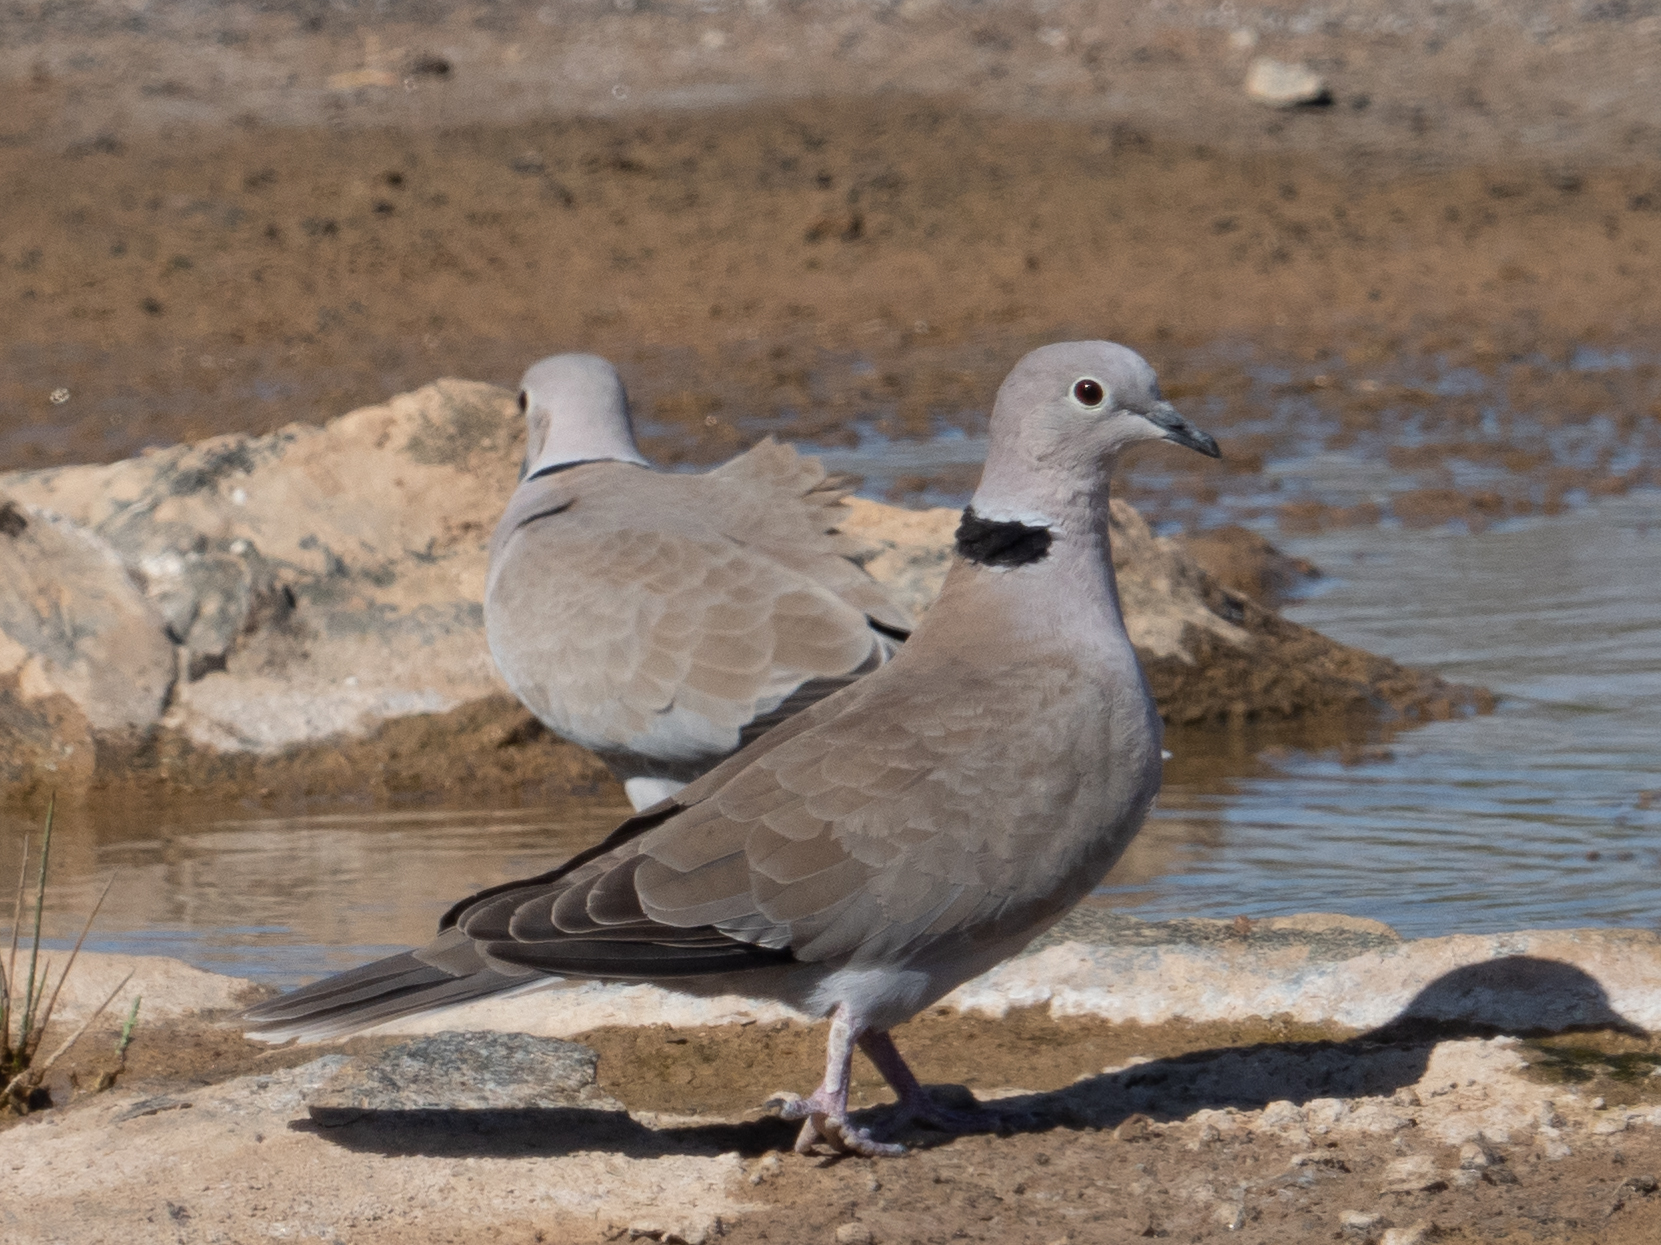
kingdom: Animalia
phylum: Chordata
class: Aves
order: Columbiformes
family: Columbidae
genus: Streptopelia
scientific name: Streptopelia decaocto
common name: Eurasian collared dove
